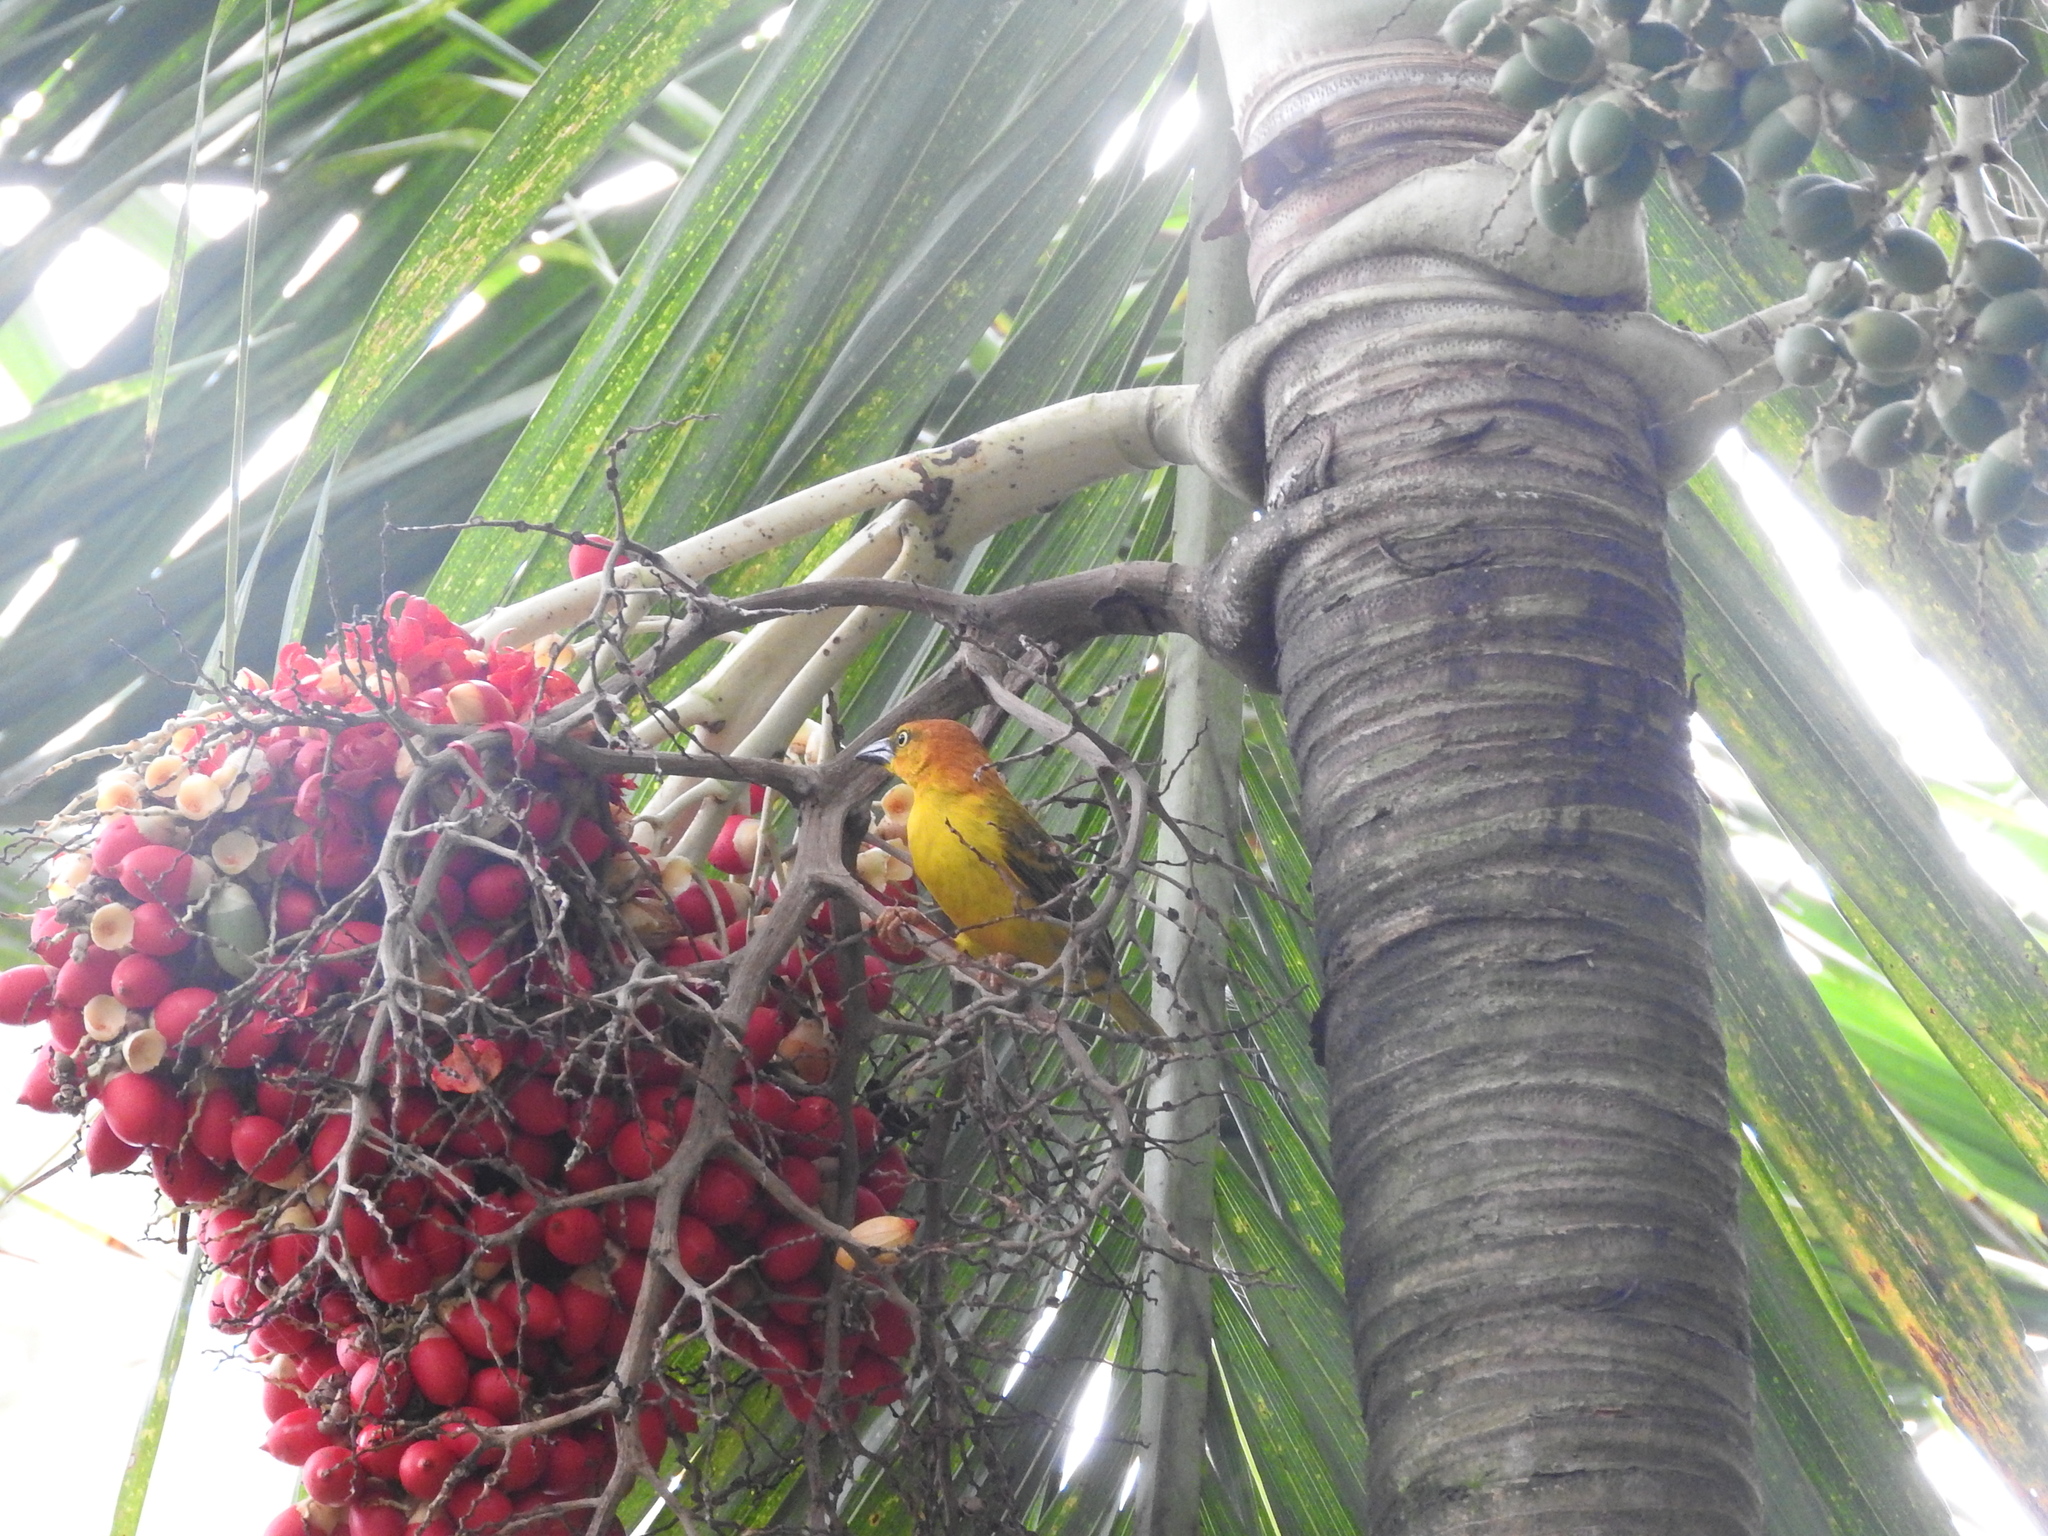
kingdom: Animalia
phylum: Chordata
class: Aves
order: Passeriformes
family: Ploceidae
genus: Ploceus
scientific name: Ploceus princeps
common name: Principe weaver
